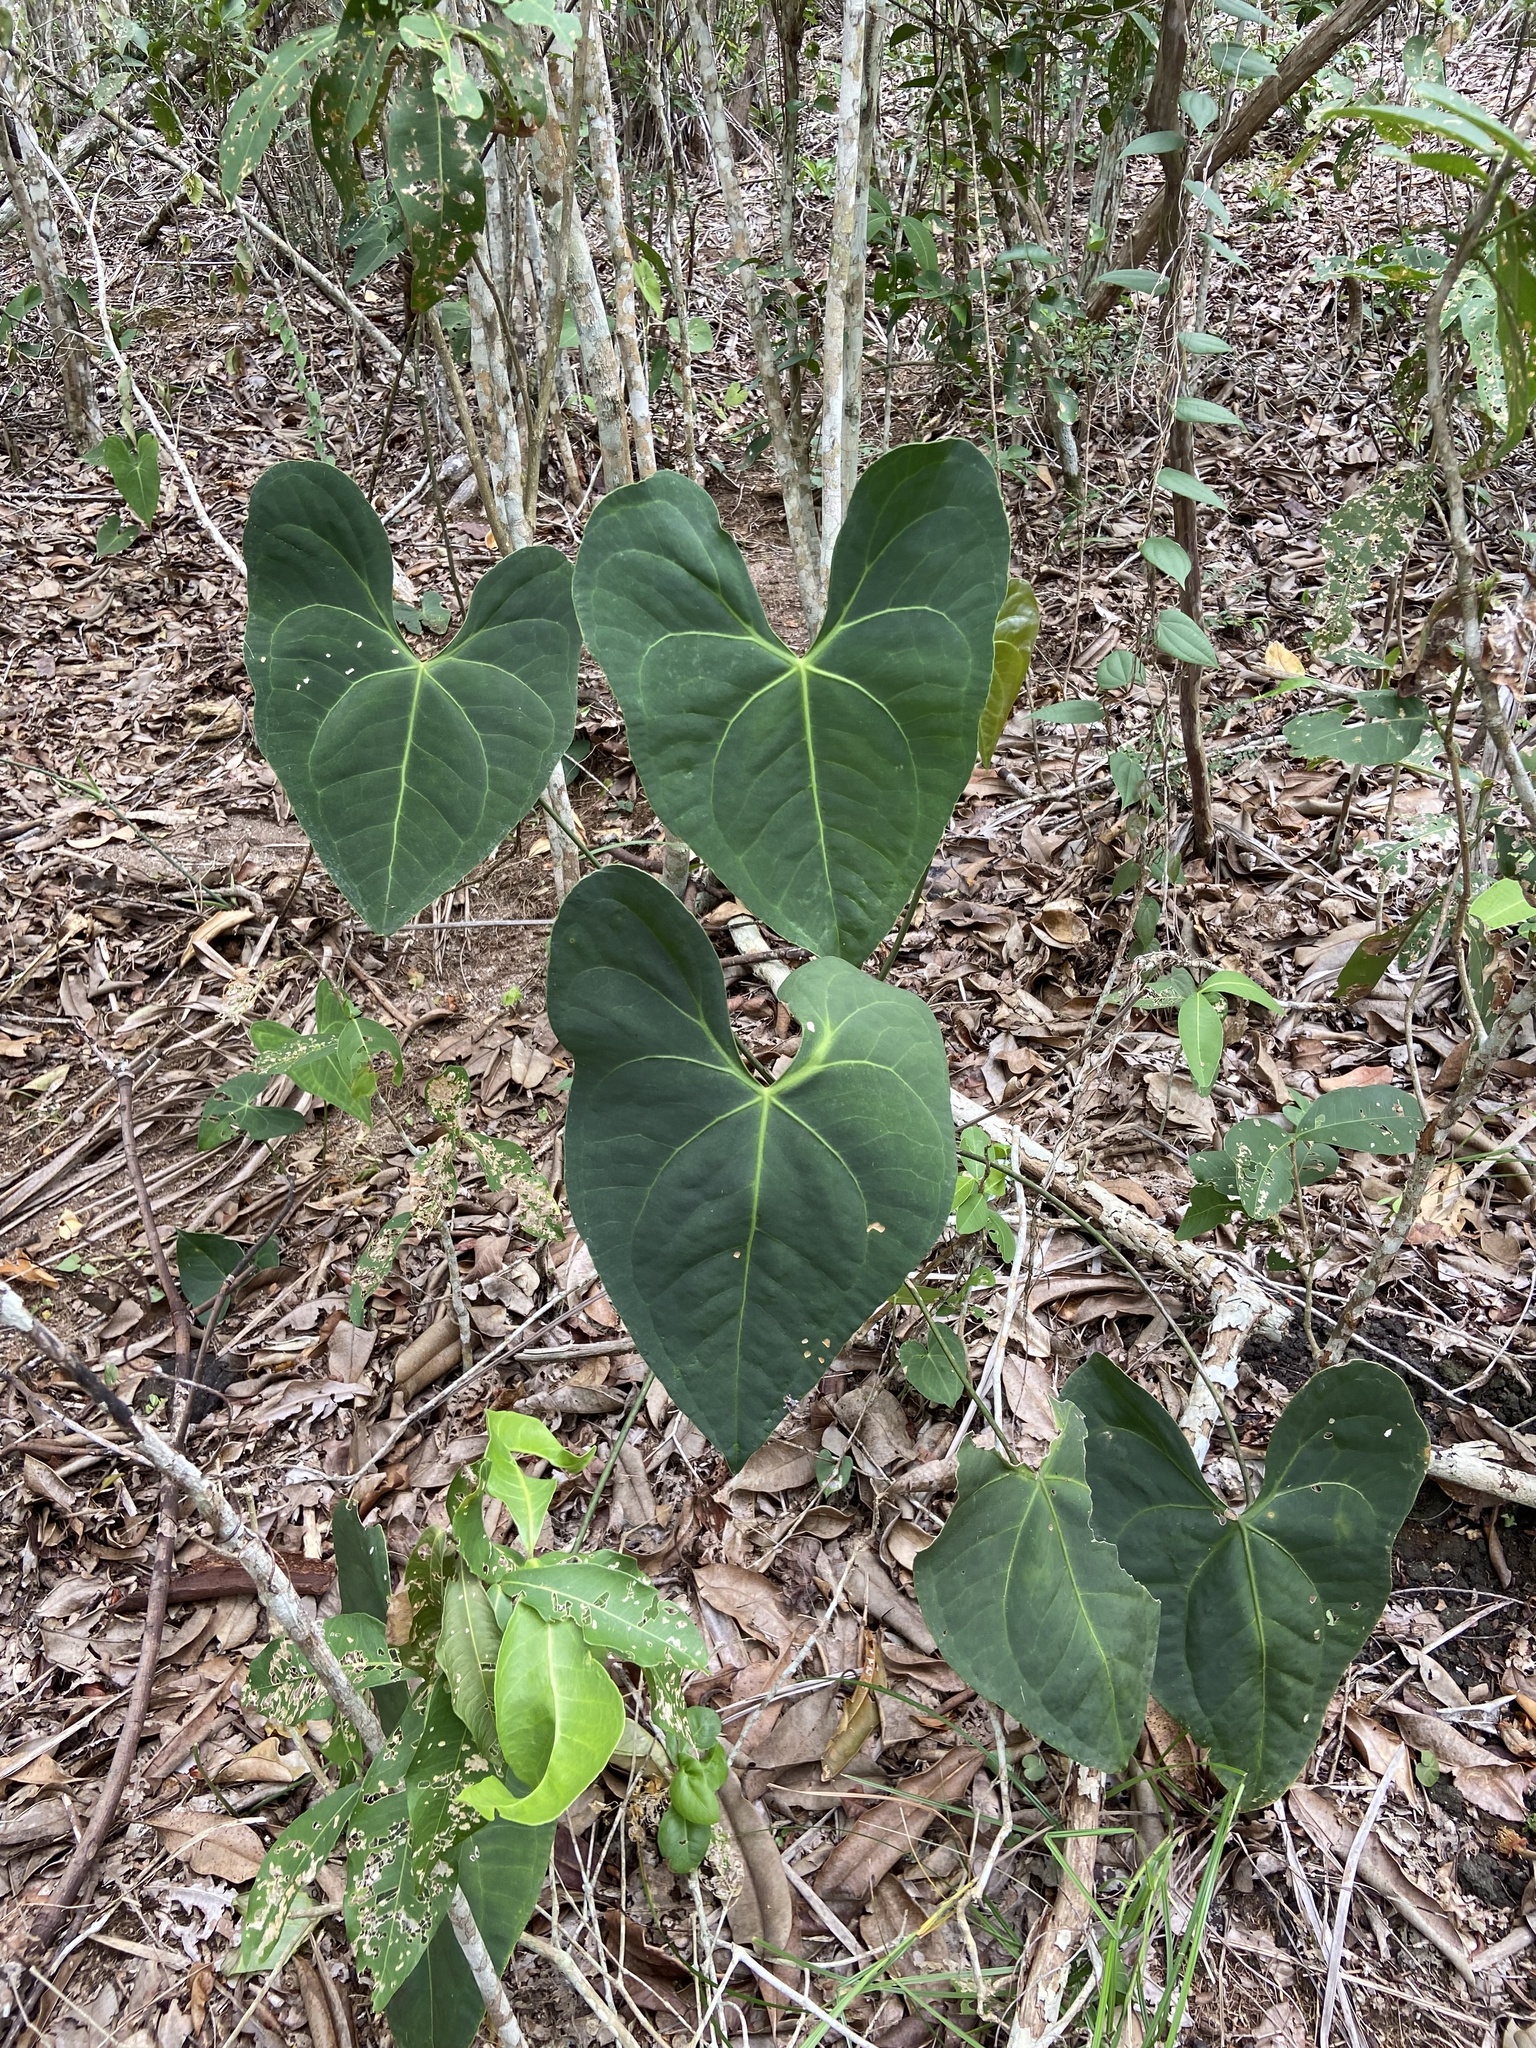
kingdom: Plantae
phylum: Tracheophyta
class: Liliopsida
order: Alismatales
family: Araceae
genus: Anthurium
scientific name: Anthurium marcusianum
